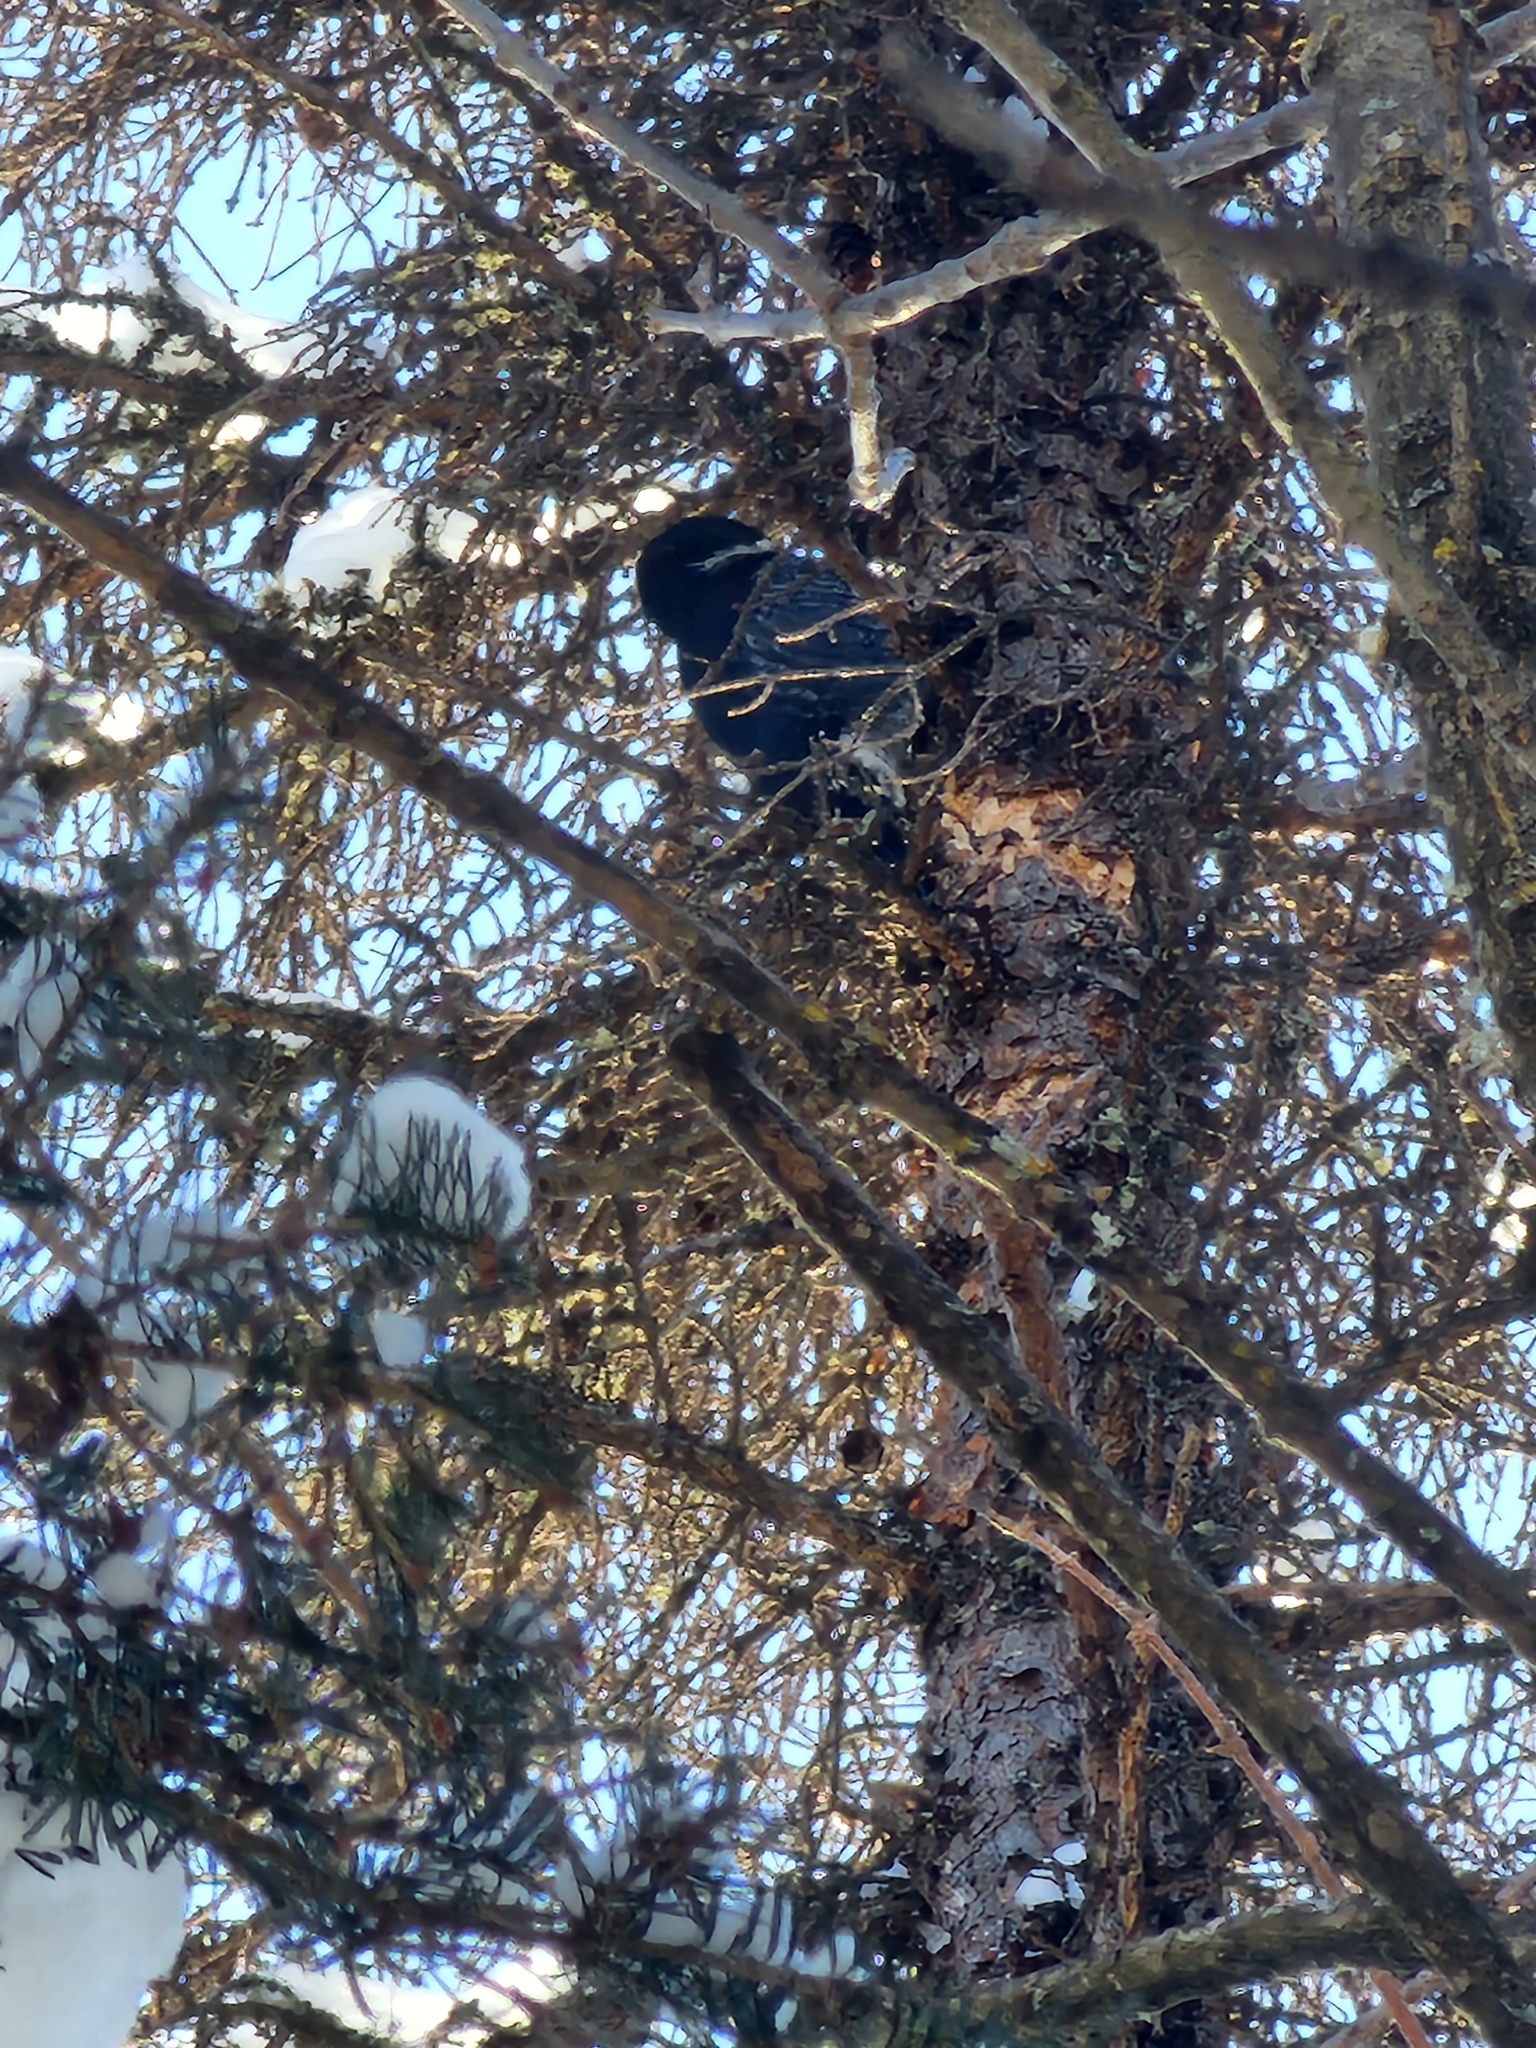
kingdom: Animalia
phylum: Chordata
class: Aves
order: Piciformes
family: Picidae
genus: Picoides
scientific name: Picoides arcticus
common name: Black-backed woodpecker
